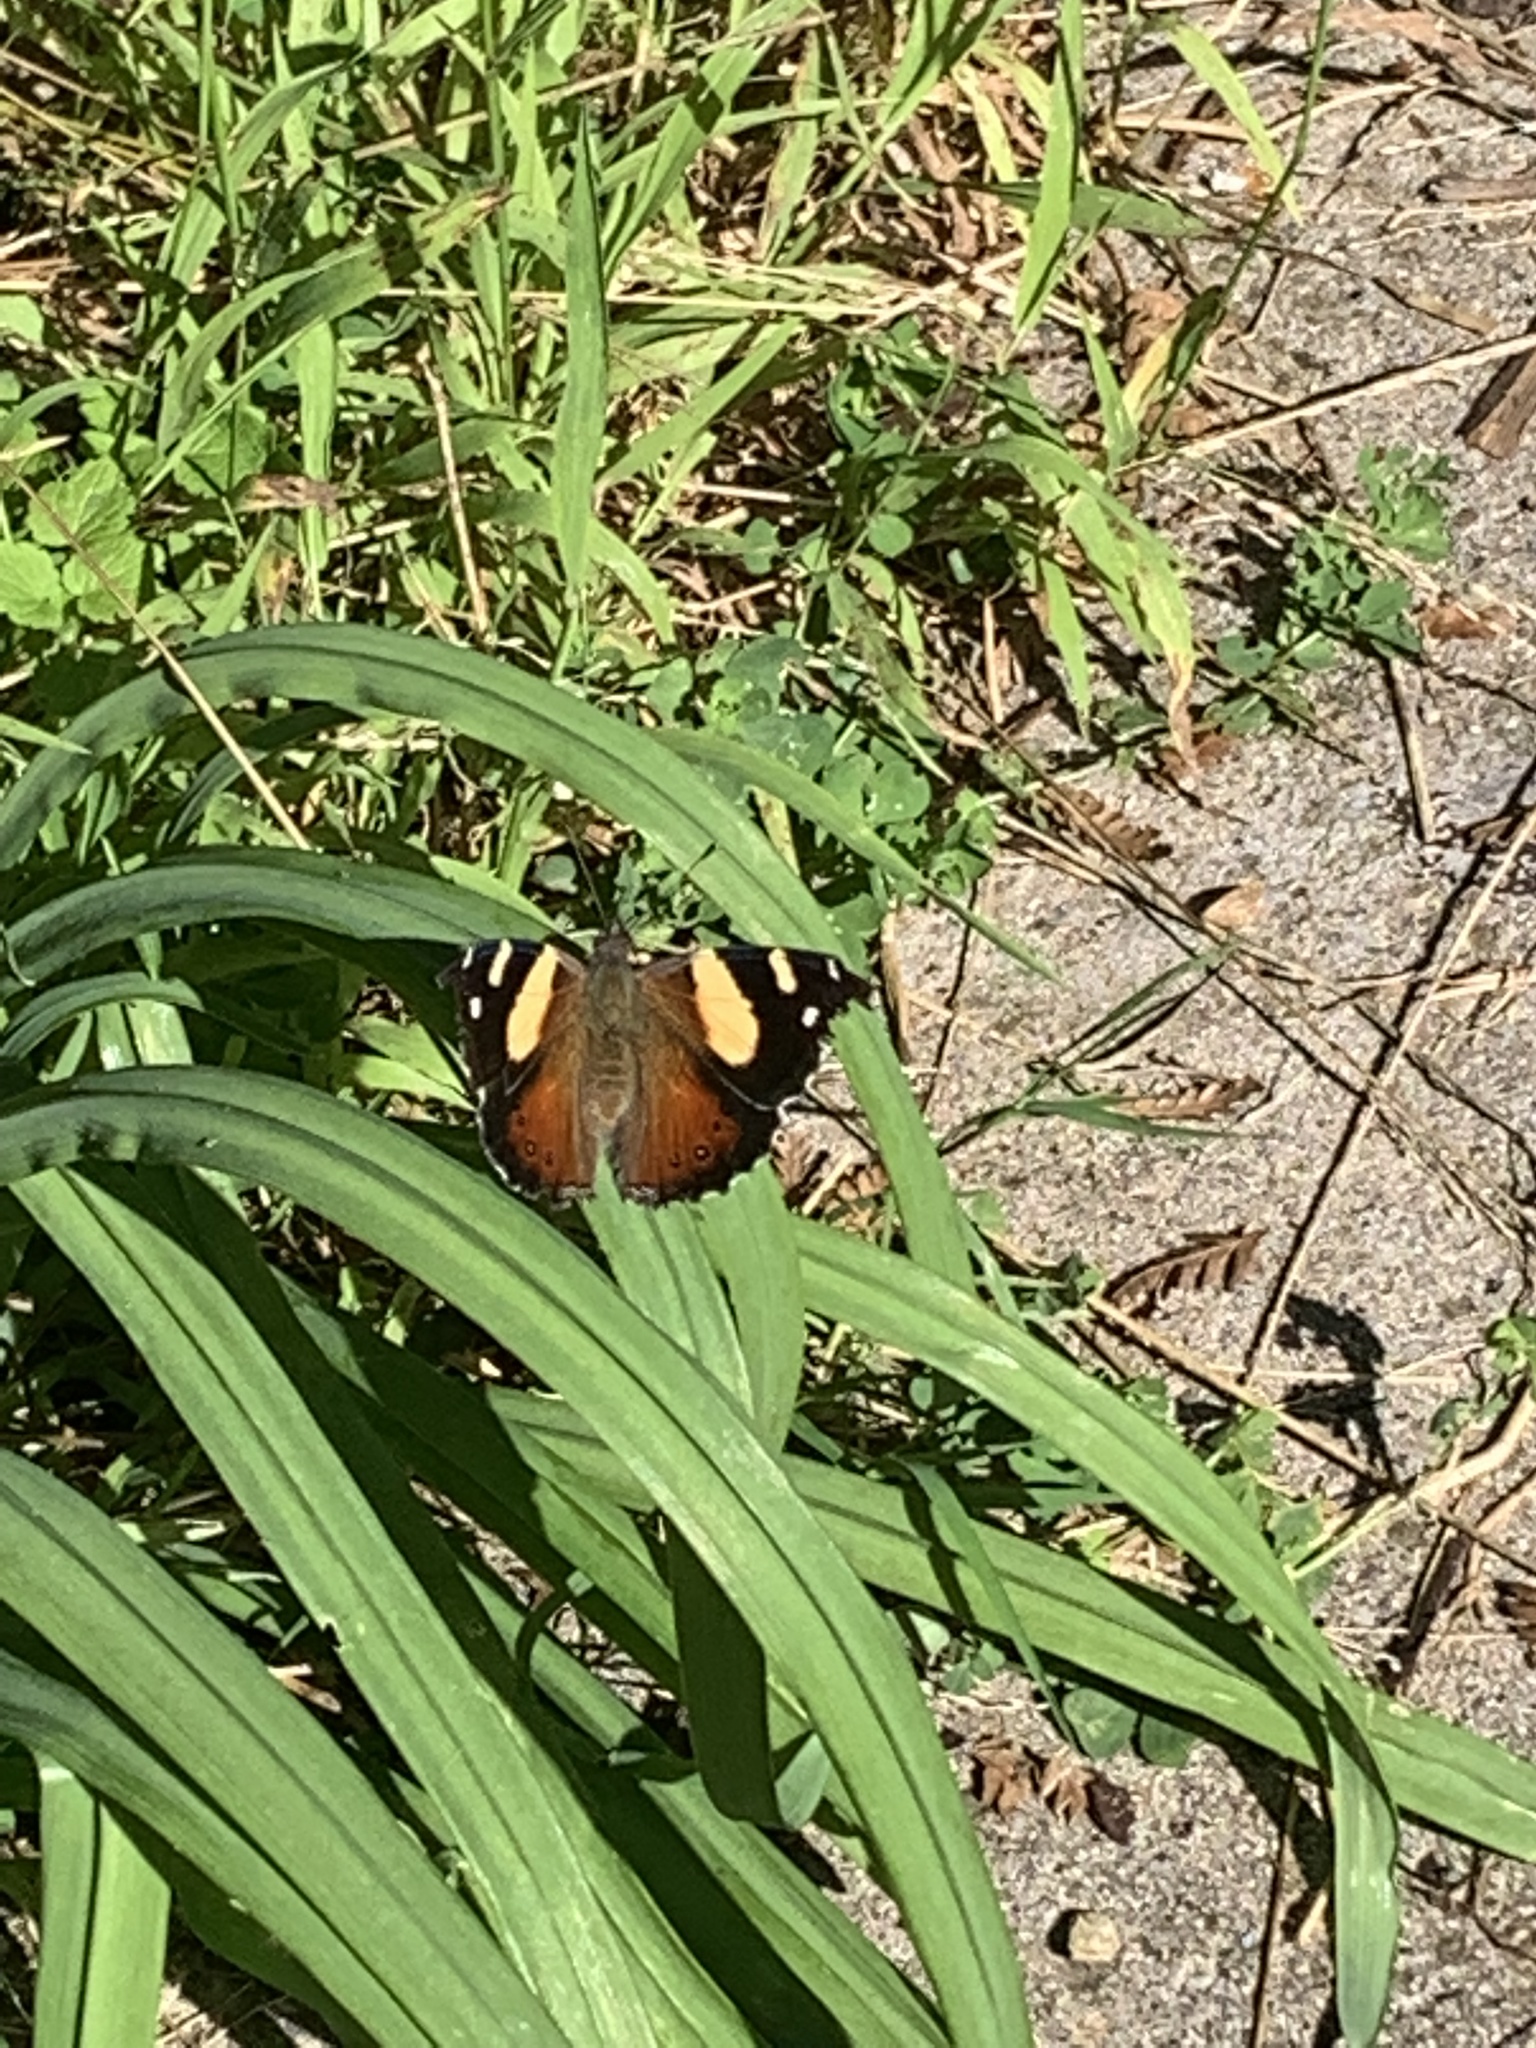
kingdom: Animalia
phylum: Arthropoda
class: Insecta
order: Lepidoptera
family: Nymphalidae
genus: Vanessa
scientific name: Vanessa itea
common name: Yellow admiral
